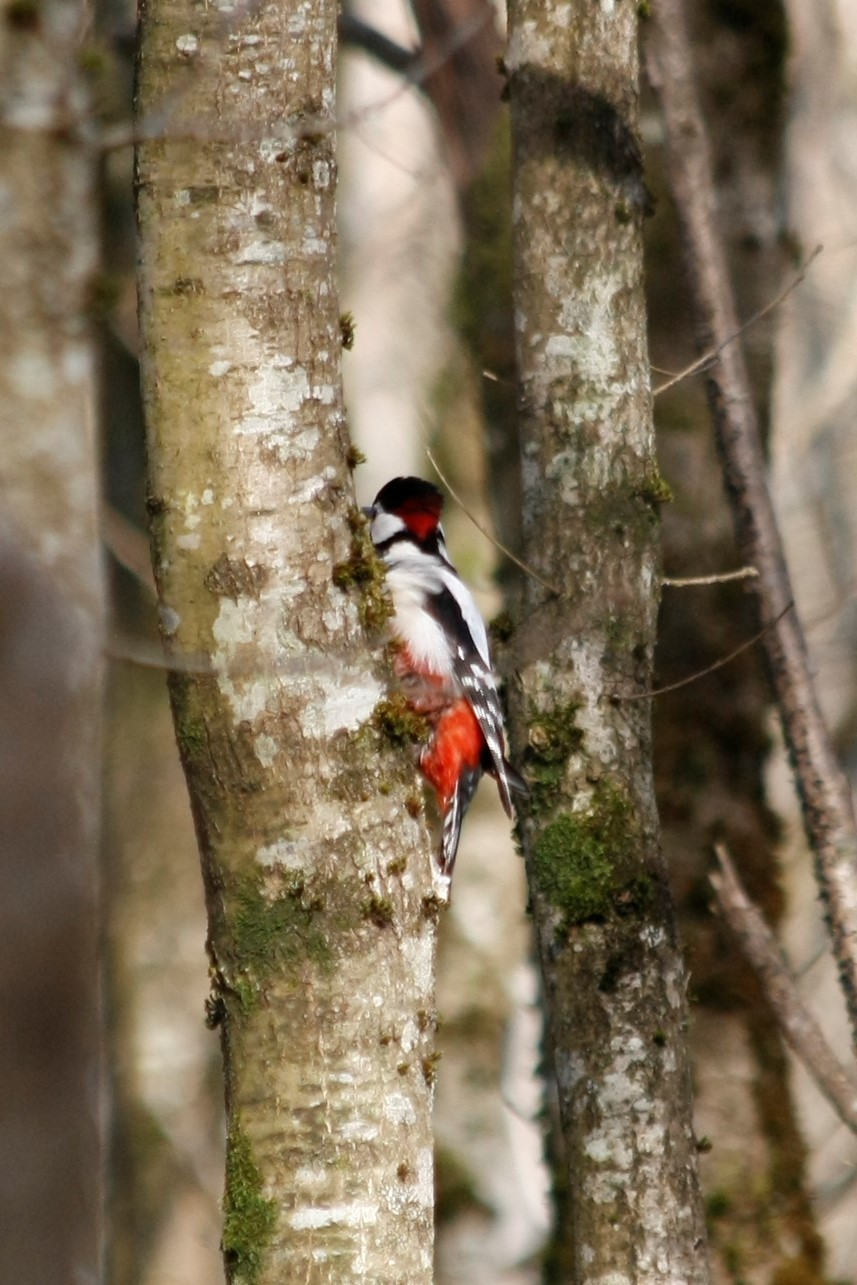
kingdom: Animalia
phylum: Chordata
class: Aves
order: Piciformes
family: Picidae
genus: Dendrocopos
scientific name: Dendrocopos major
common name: Great spotted woodpecker
